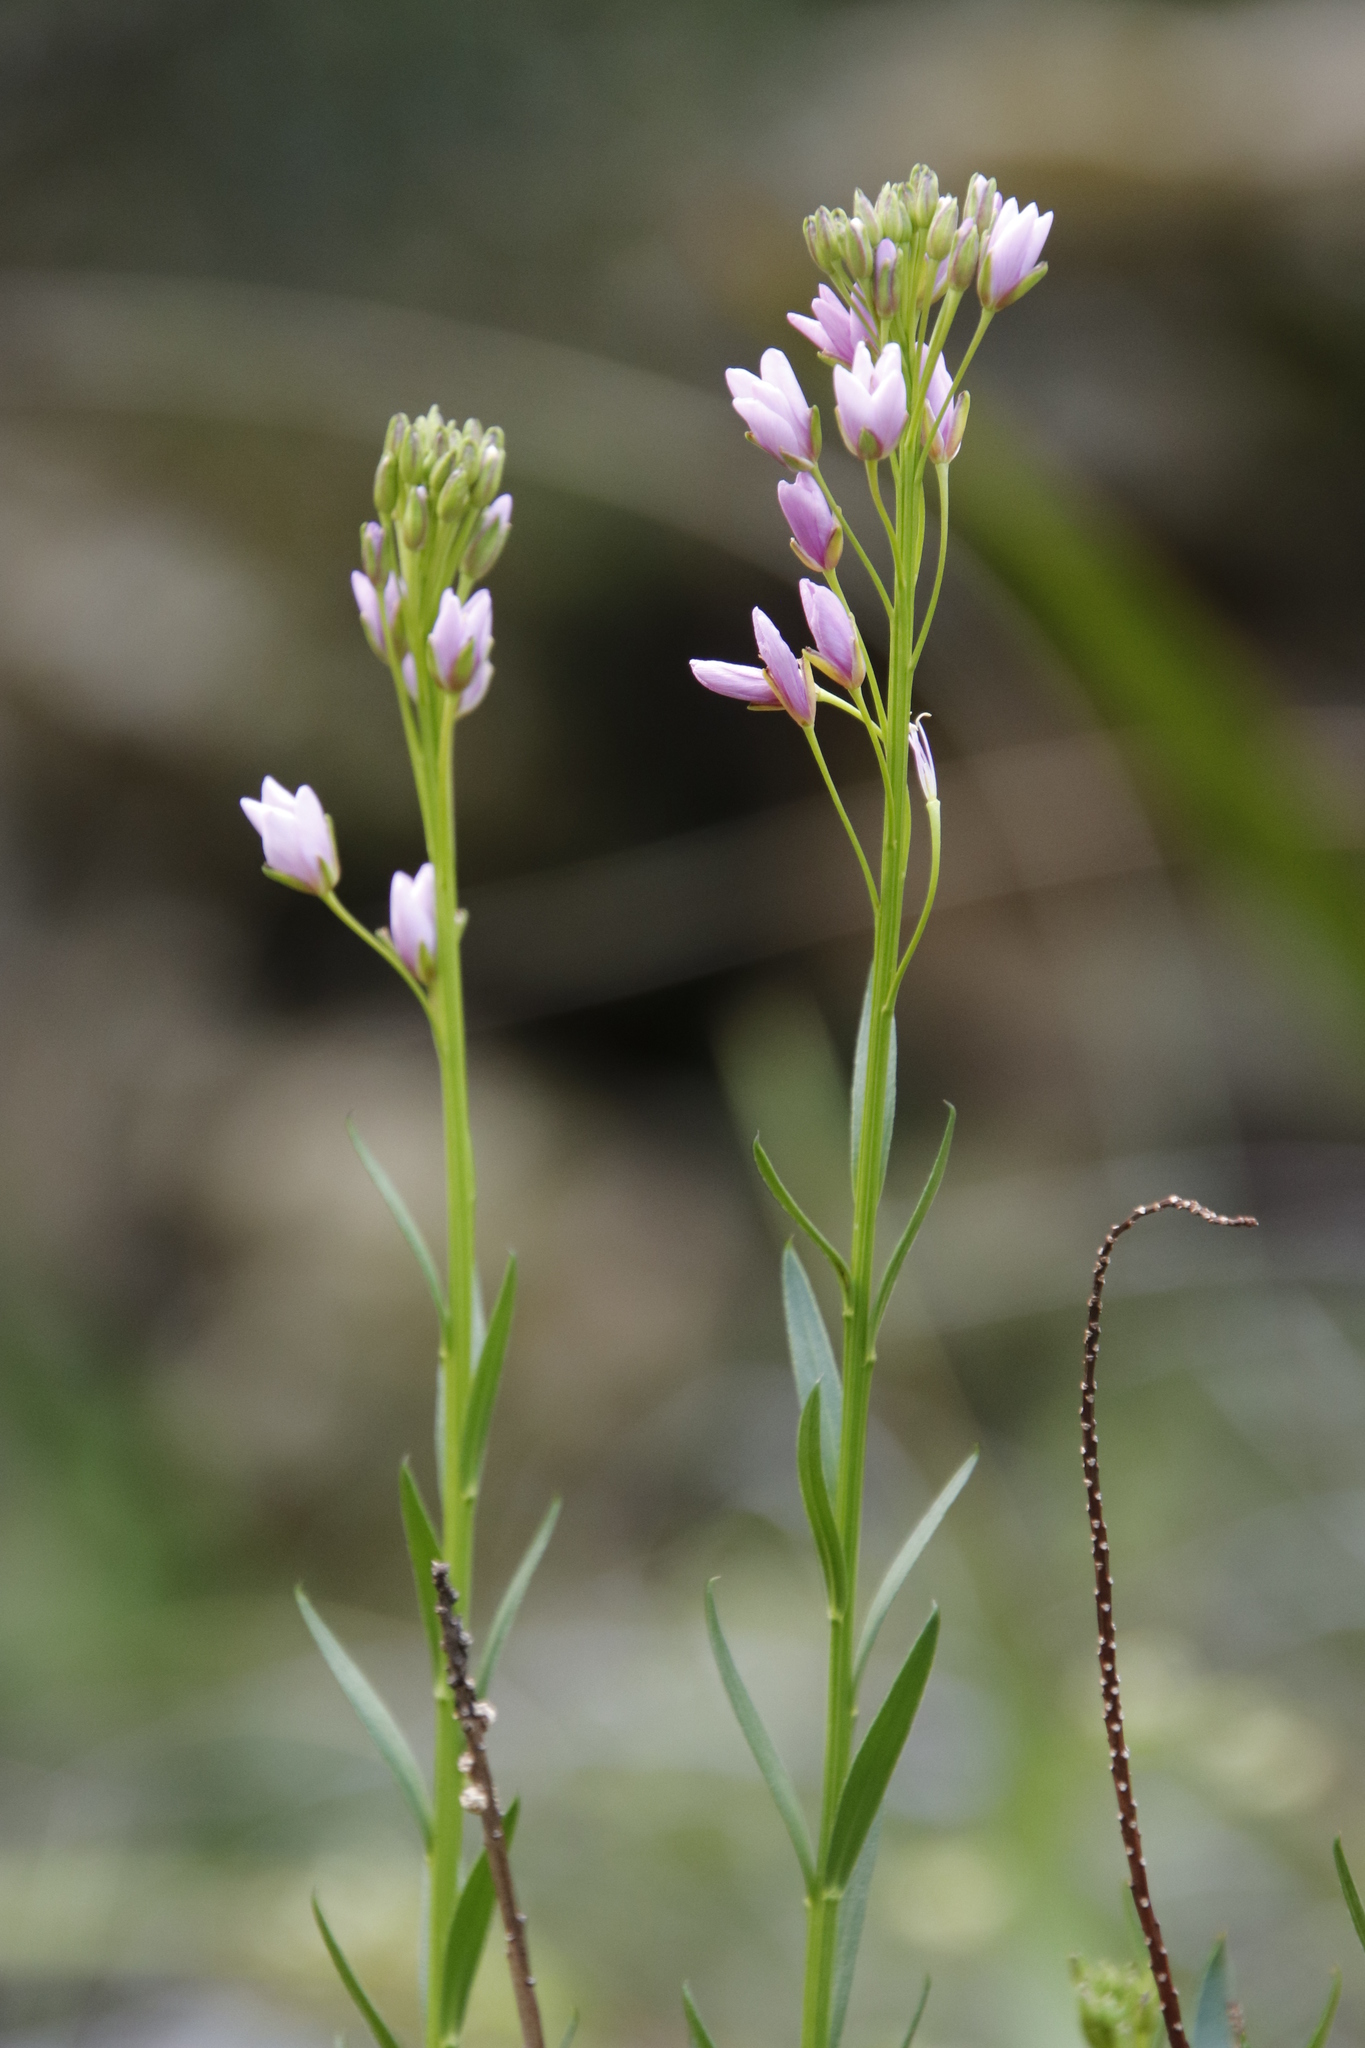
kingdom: Plantae
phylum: Tracheophyta
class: Magnoliopsida
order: Brassicales
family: Brassicaceae
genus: Heliophila
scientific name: Heliophila callosa
